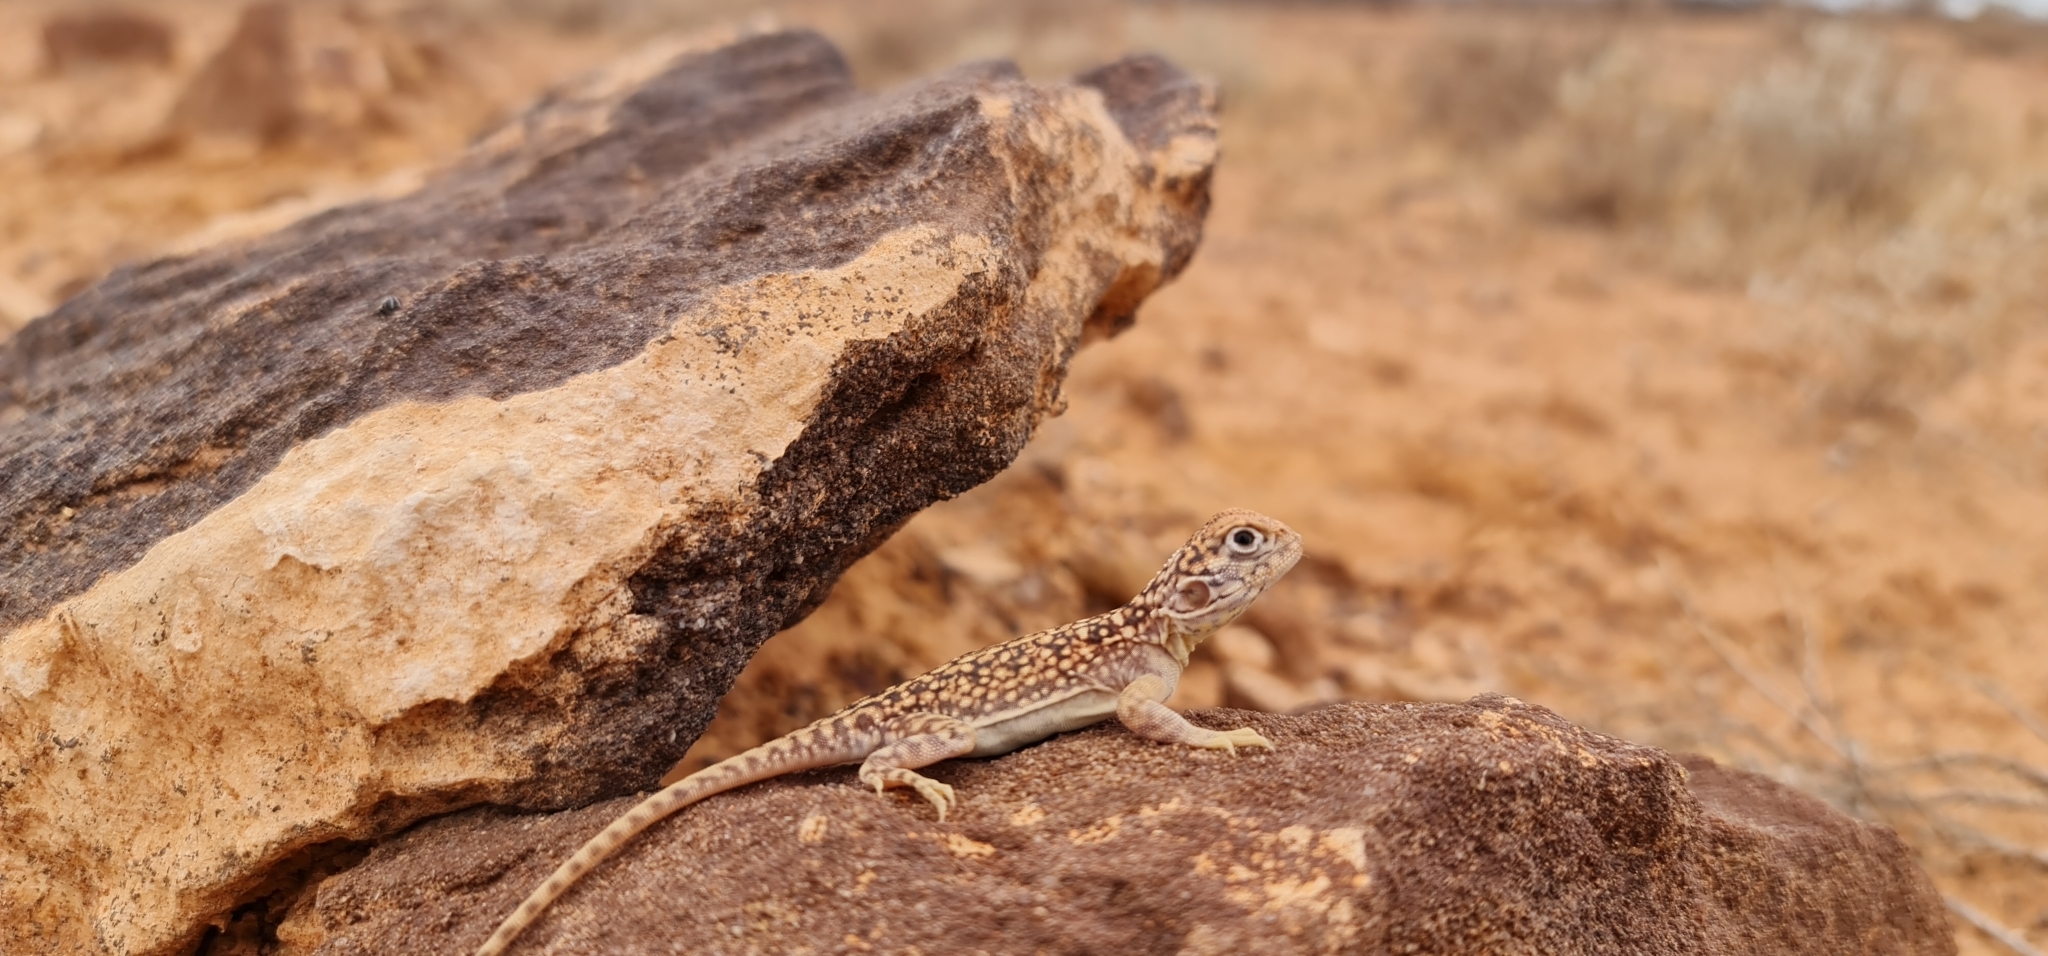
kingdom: Animalia
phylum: Chordata
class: Squamata
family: Agamidae
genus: Ctenophorus
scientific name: Ctenophorus nuchalis
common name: Central netted dragon
